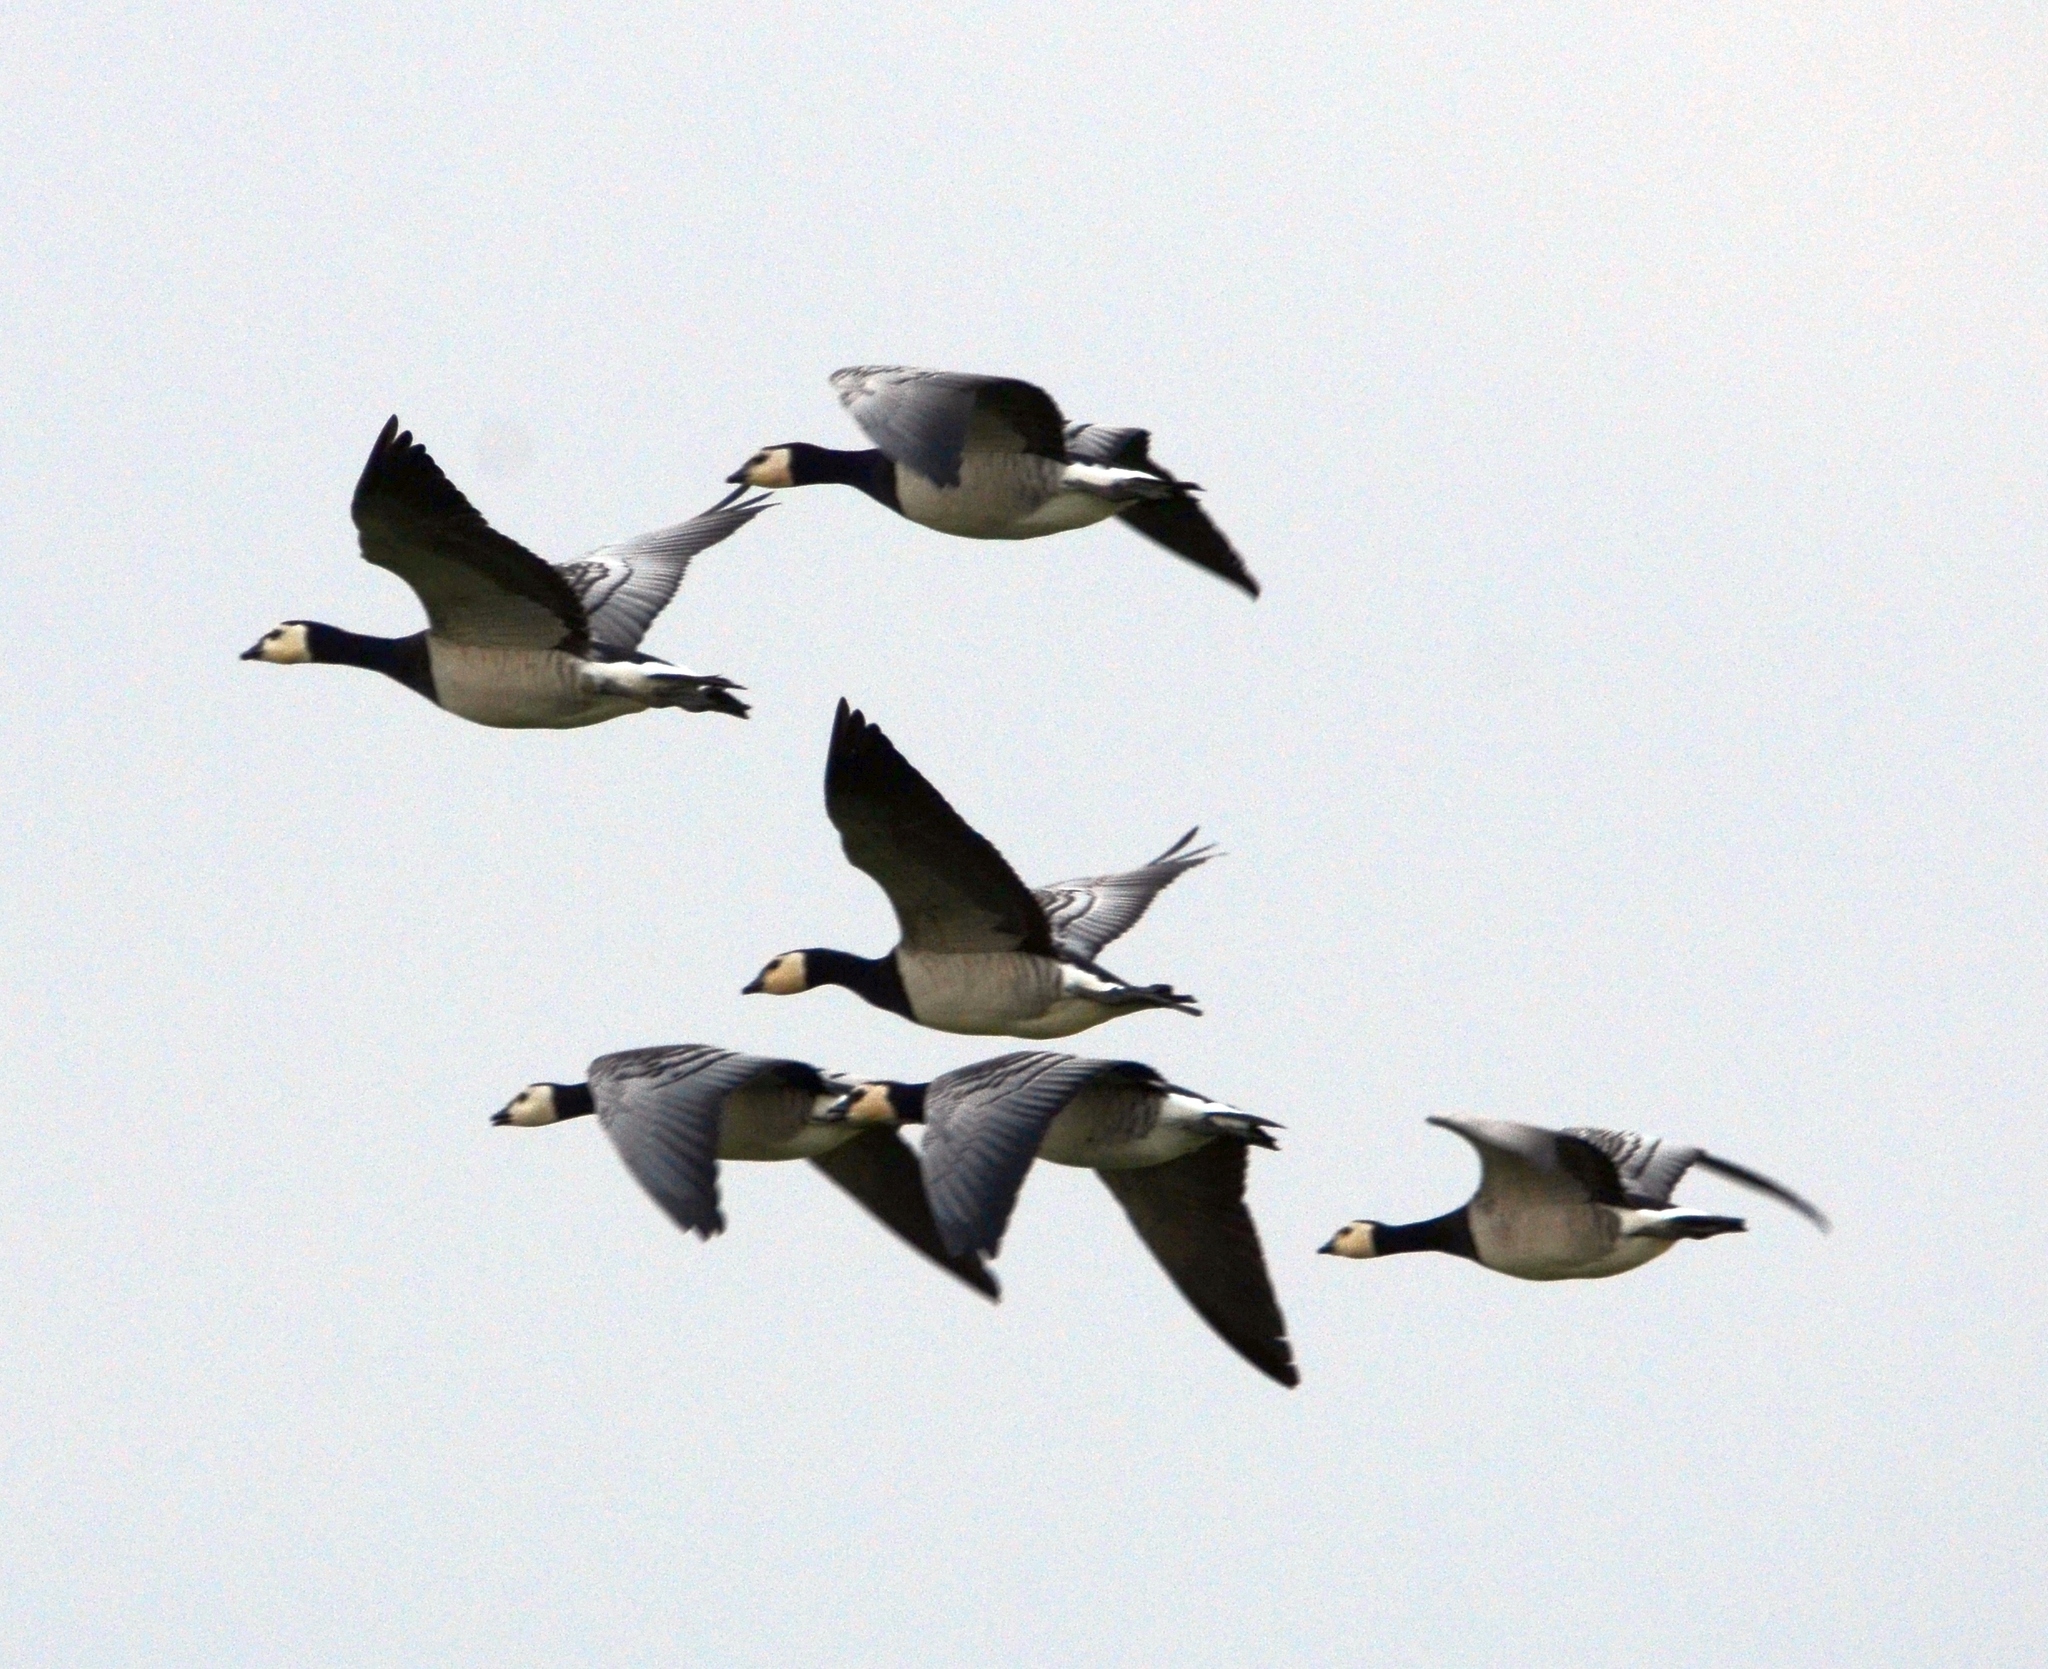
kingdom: Animalia
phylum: Chordata
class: Aves
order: Anseriformes
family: Anatidae
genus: Branta
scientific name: Branta leucopsis
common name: Barnacle goose
